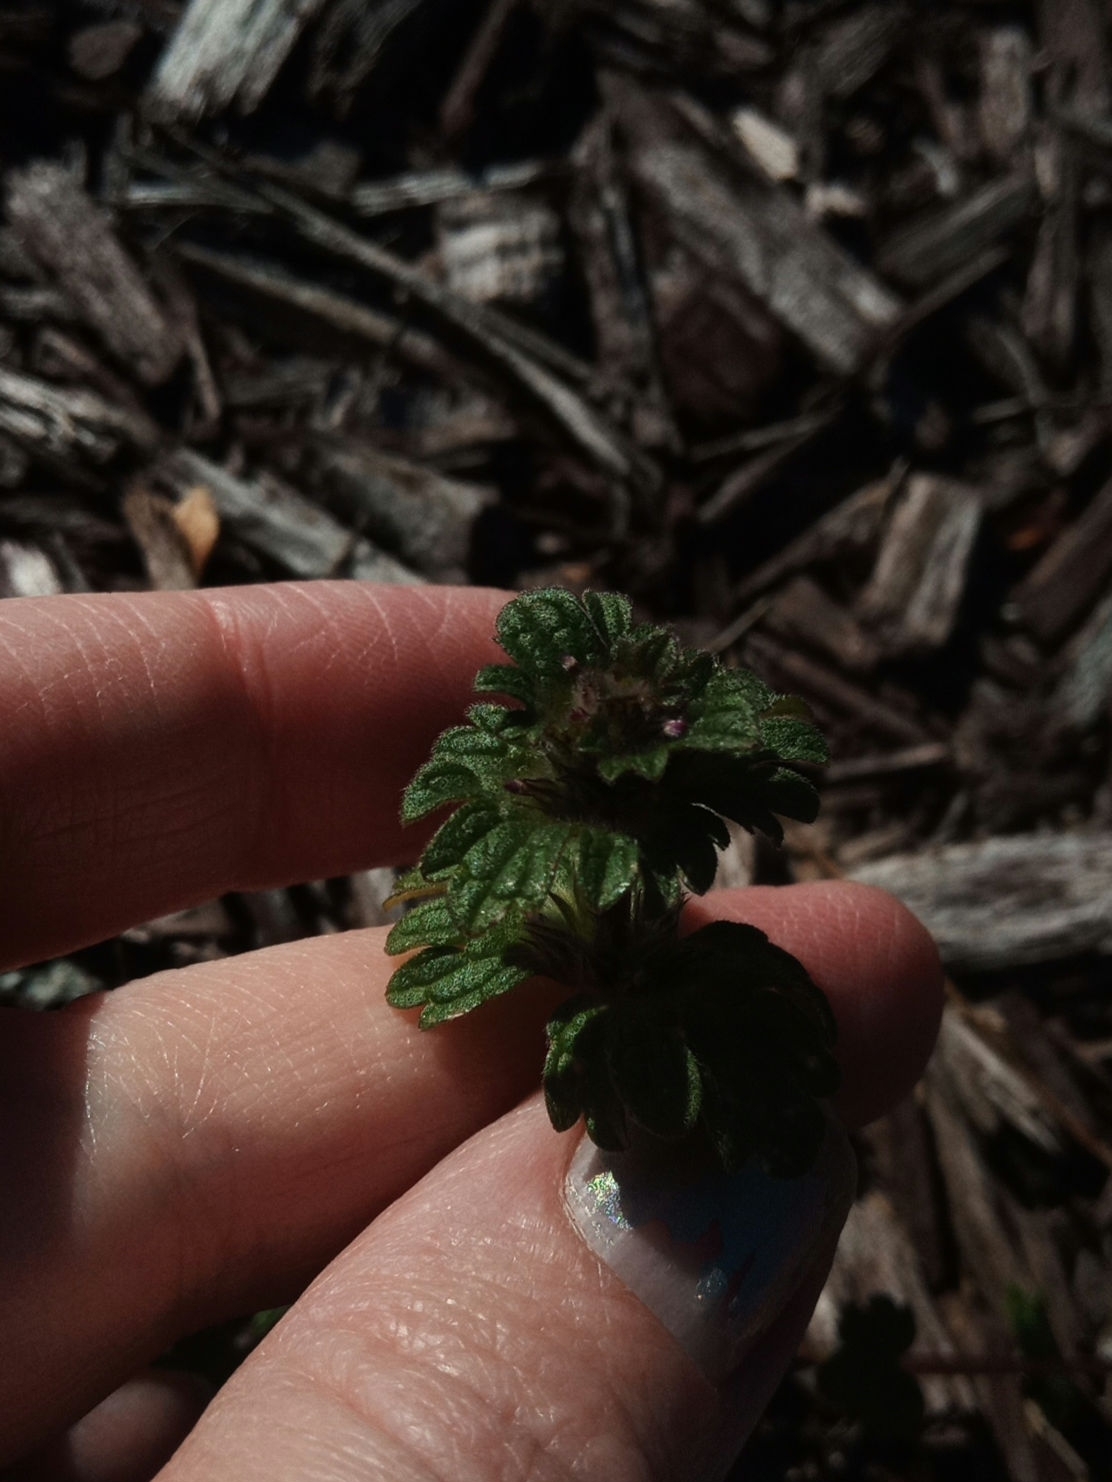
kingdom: Plantae
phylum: Tracheophyta
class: Magnoliopsida
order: Lamiales
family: Lamiaceae
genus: Lamium
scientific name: Lamium amplexicaule
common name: Henbit dead-nettle
